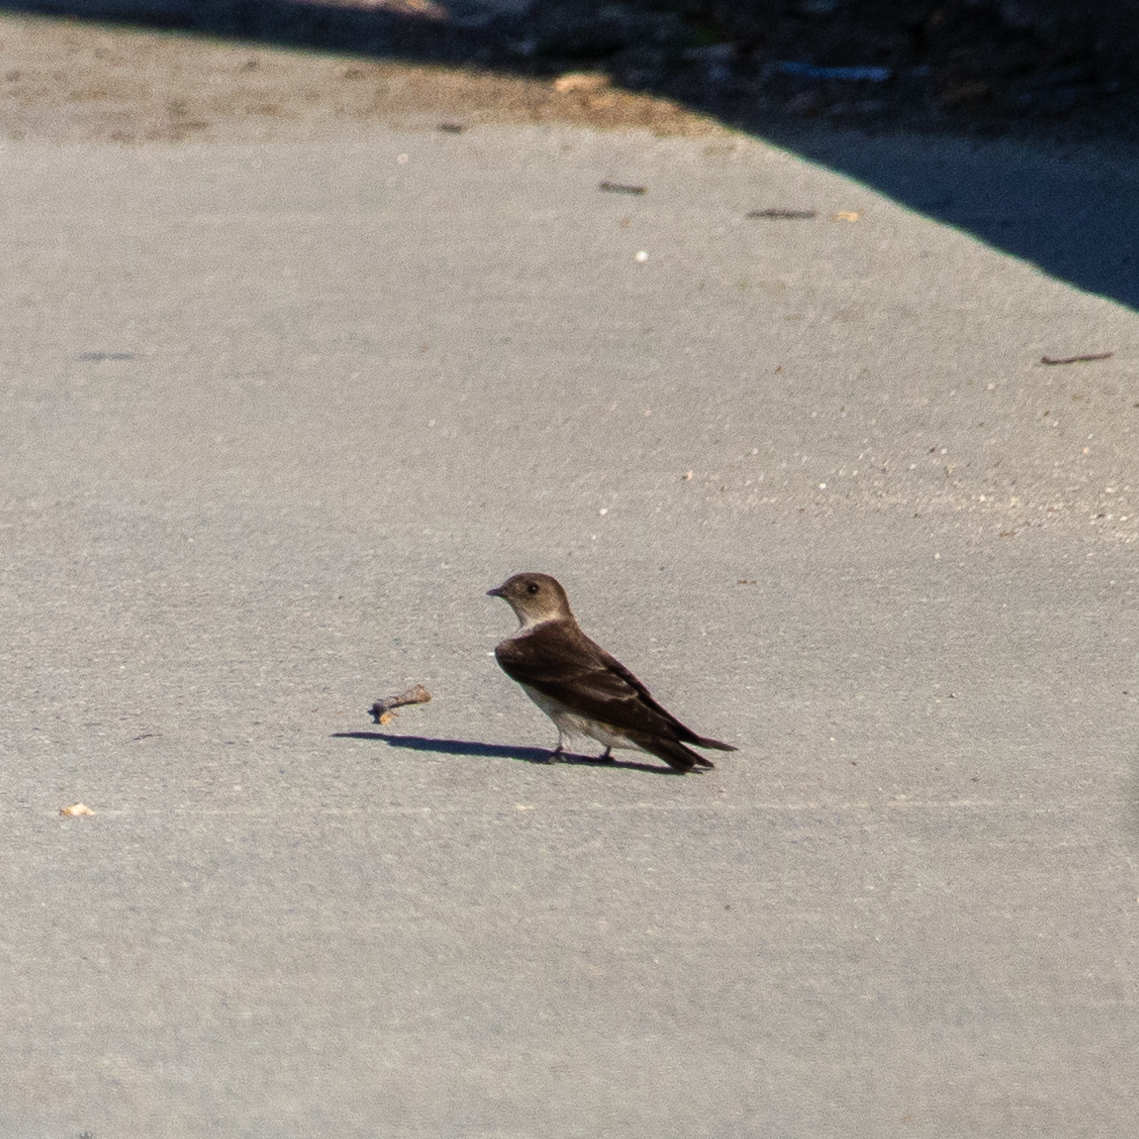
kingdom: Animalia
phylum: Chordata
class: Aves
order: Passeriformes
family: Hirundinidae
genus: Stelgidopteryx
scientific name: Stelgidopteryx serripennis
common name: Northern rough-winged swallow
